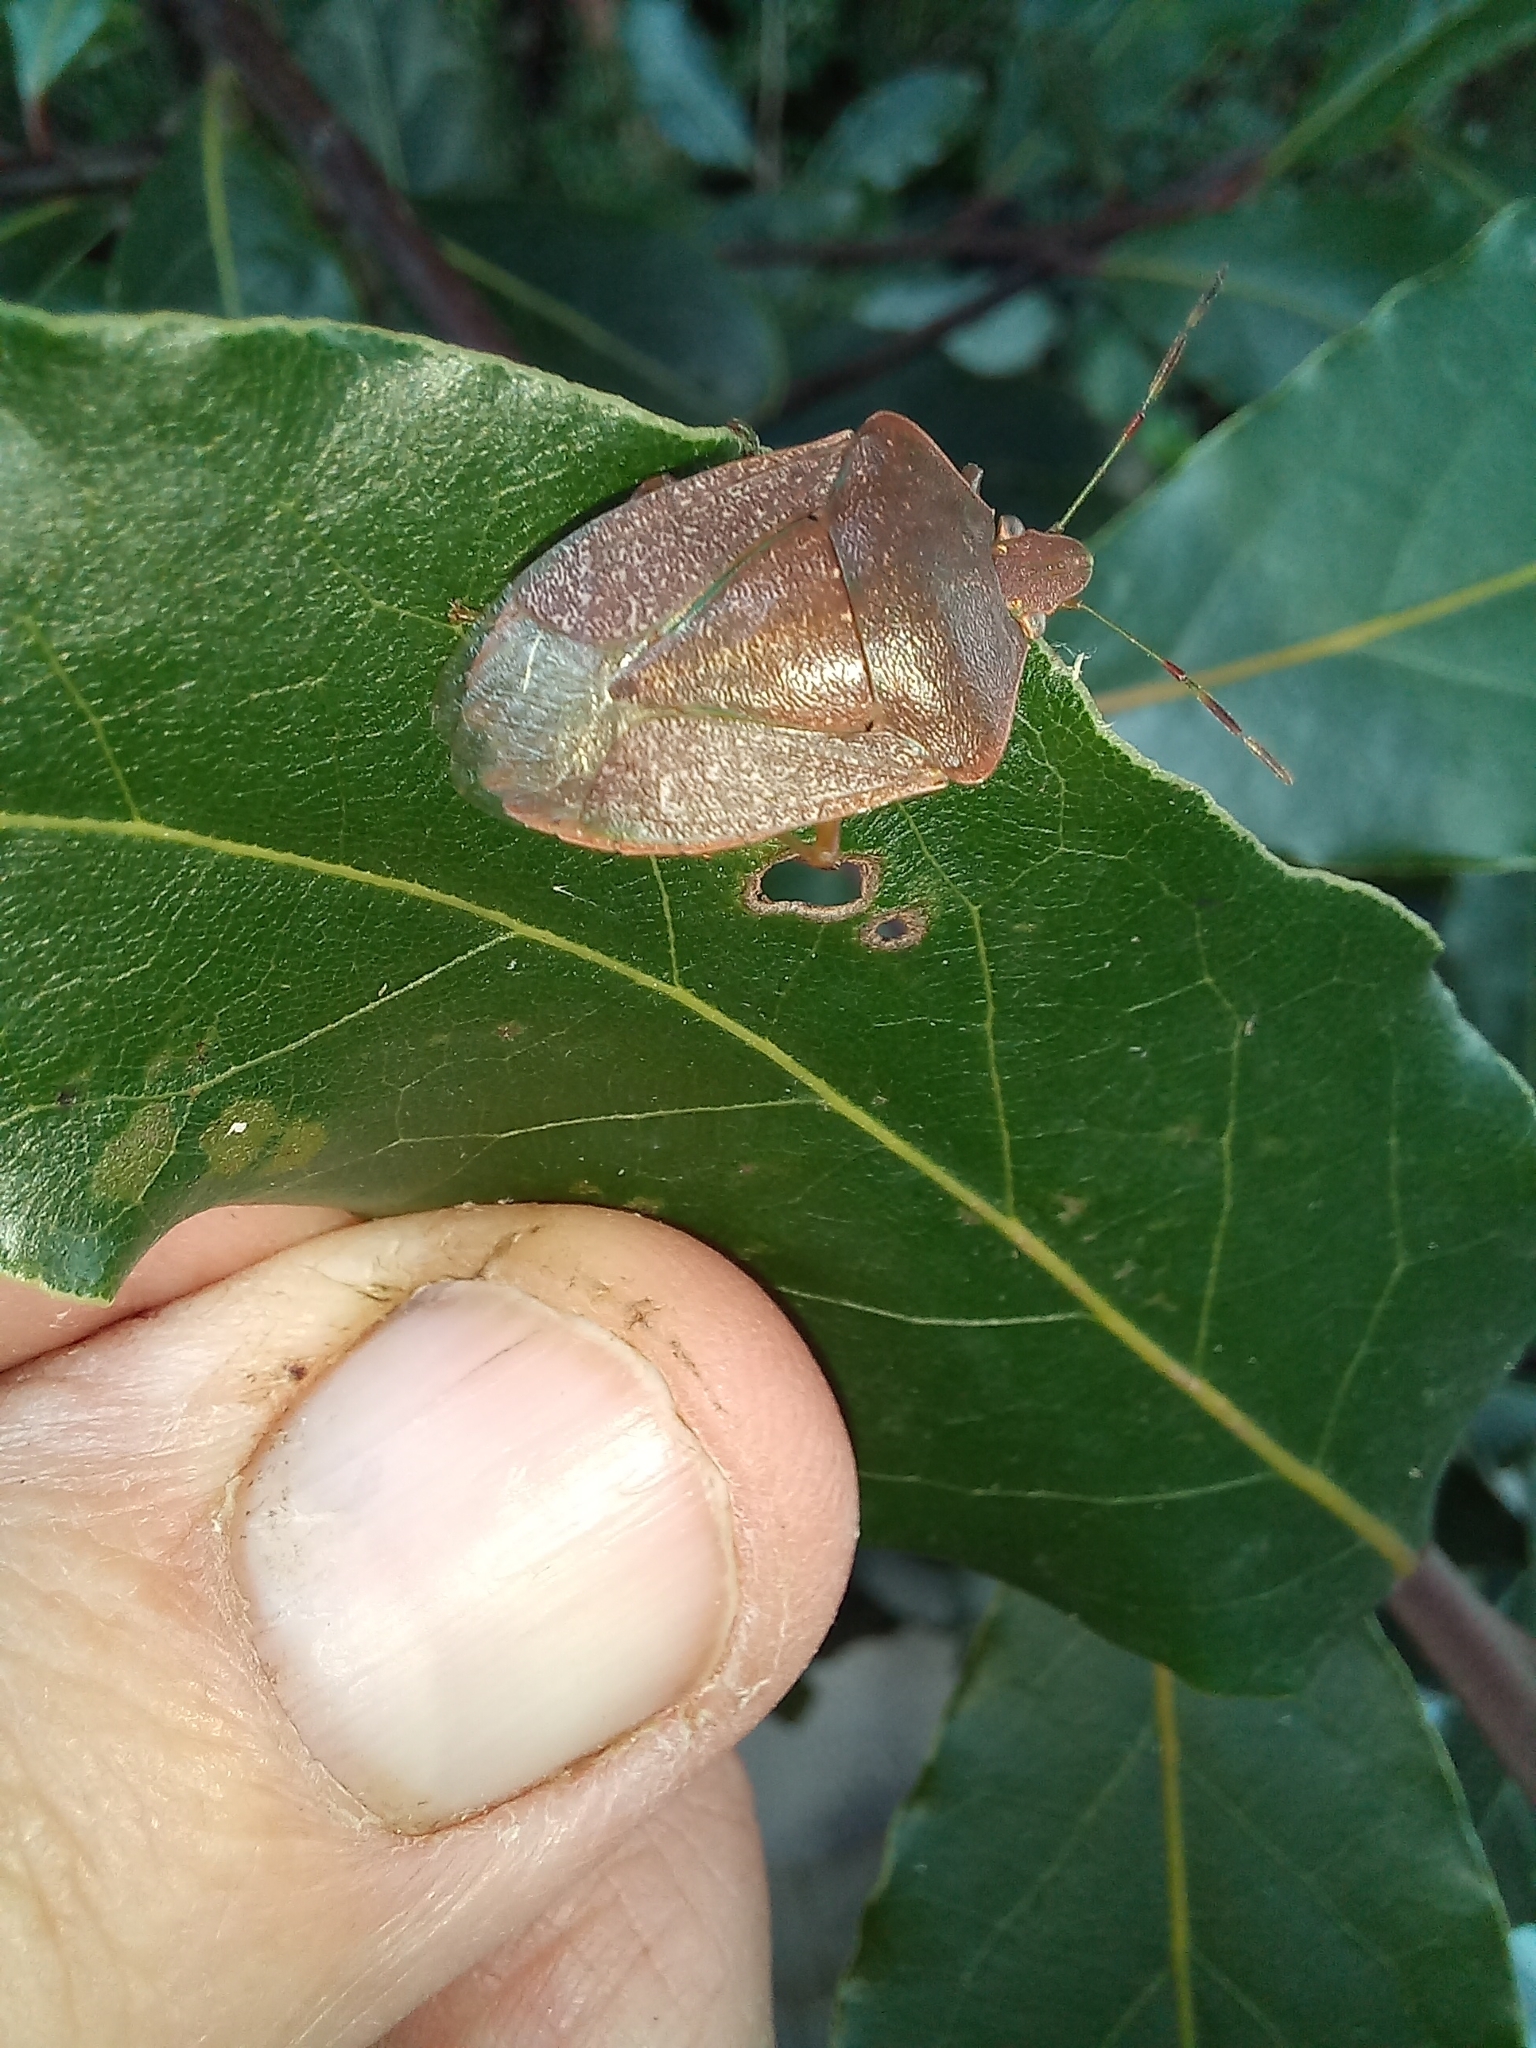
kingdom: Animalia
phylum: Arthropoda
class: Insecta
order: Hemiptera
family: Pentatomidae
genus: Nezara
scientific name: Nezara viridula
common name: Southern green stink bug
